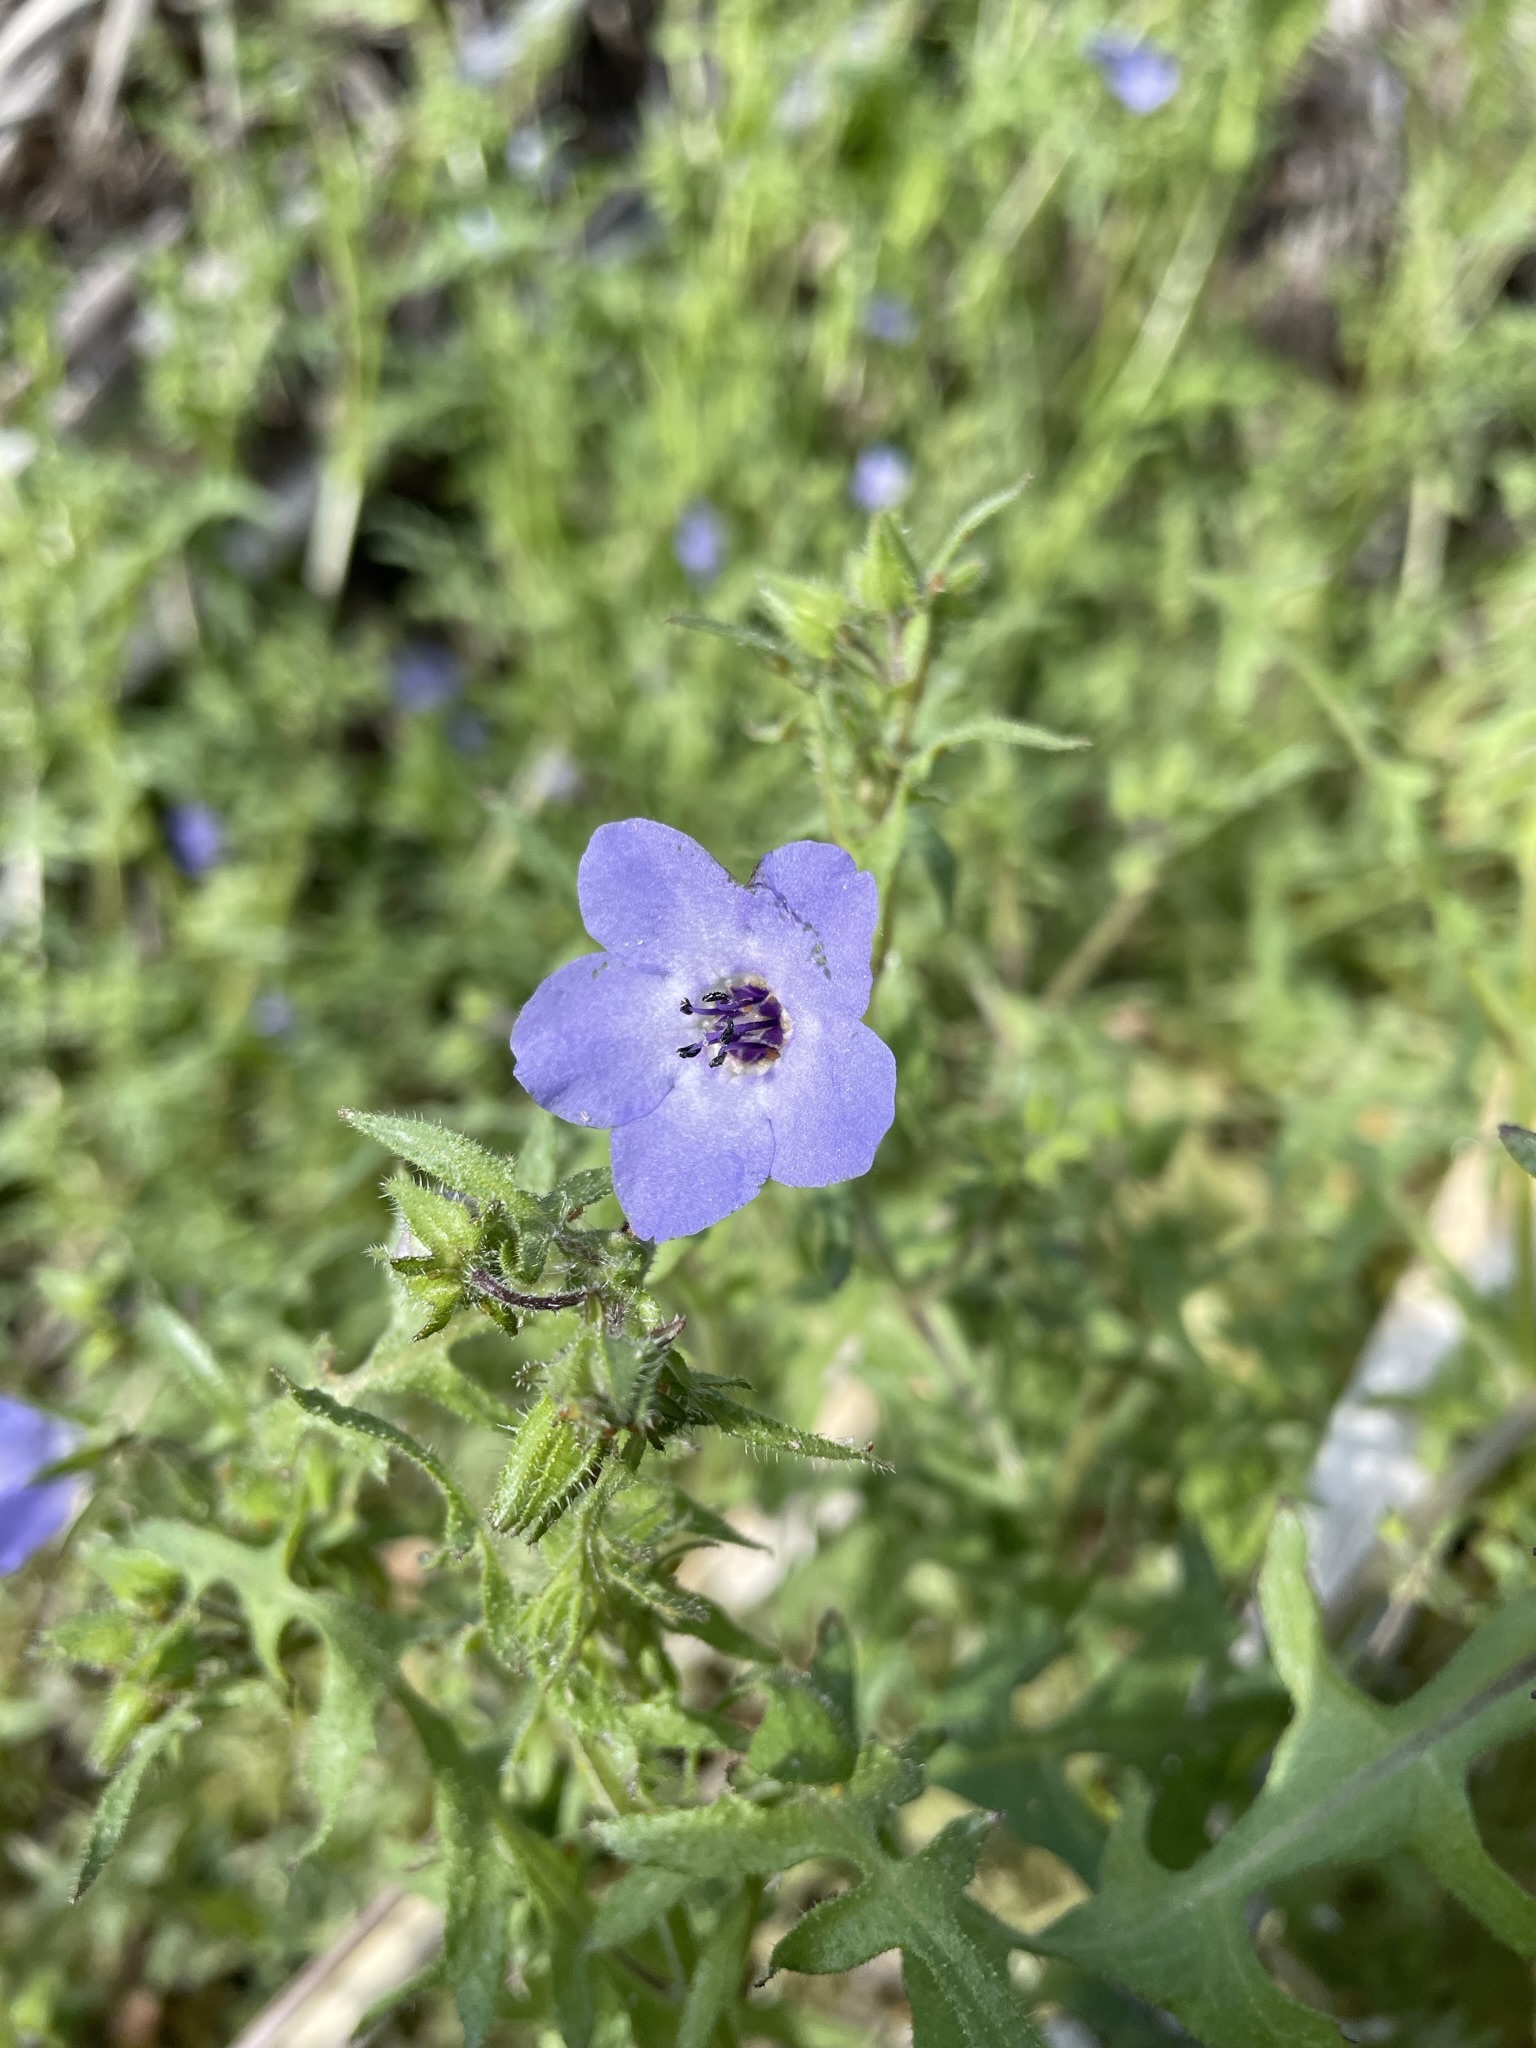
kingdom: Plantae
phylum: Tracheophyta
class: Magnoliopsida
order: Boraginales
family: Hydrophyllaceae
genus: Pholistoma
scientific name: Pholistoma auritum
